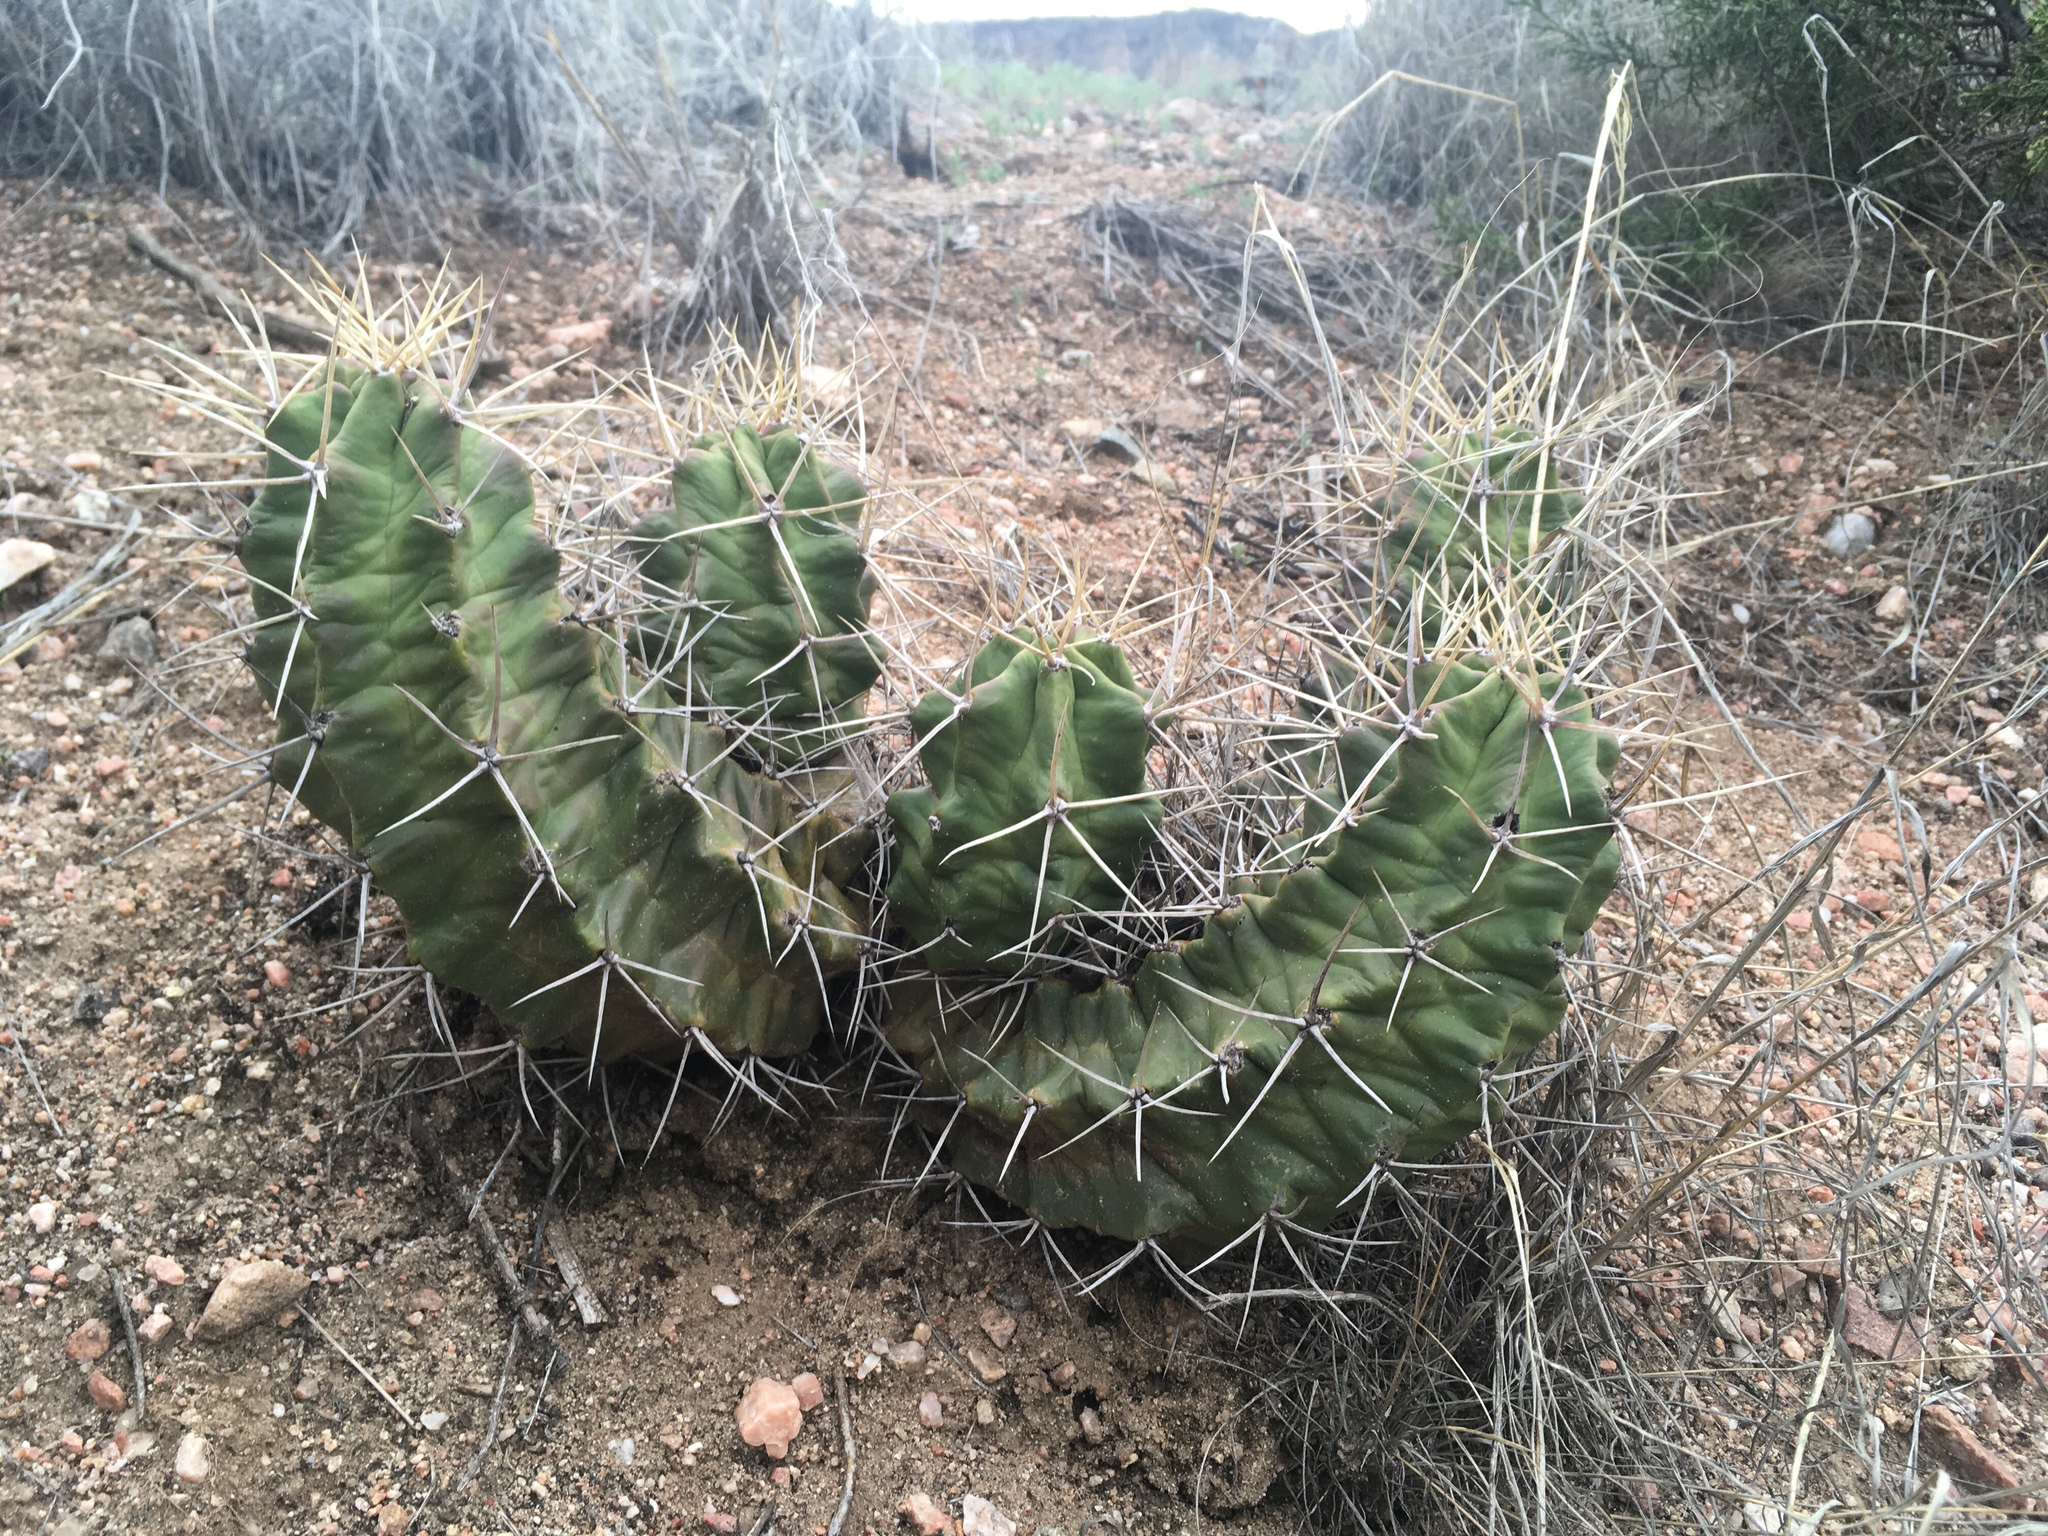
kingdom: Plantae
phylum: Tracheophyta
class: Magnoliopsida
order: Caryophyllales
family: Cactaceae
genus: Echinocereus
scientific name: Echinocereus triglochidiatus
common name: Claretcup hedgehog
